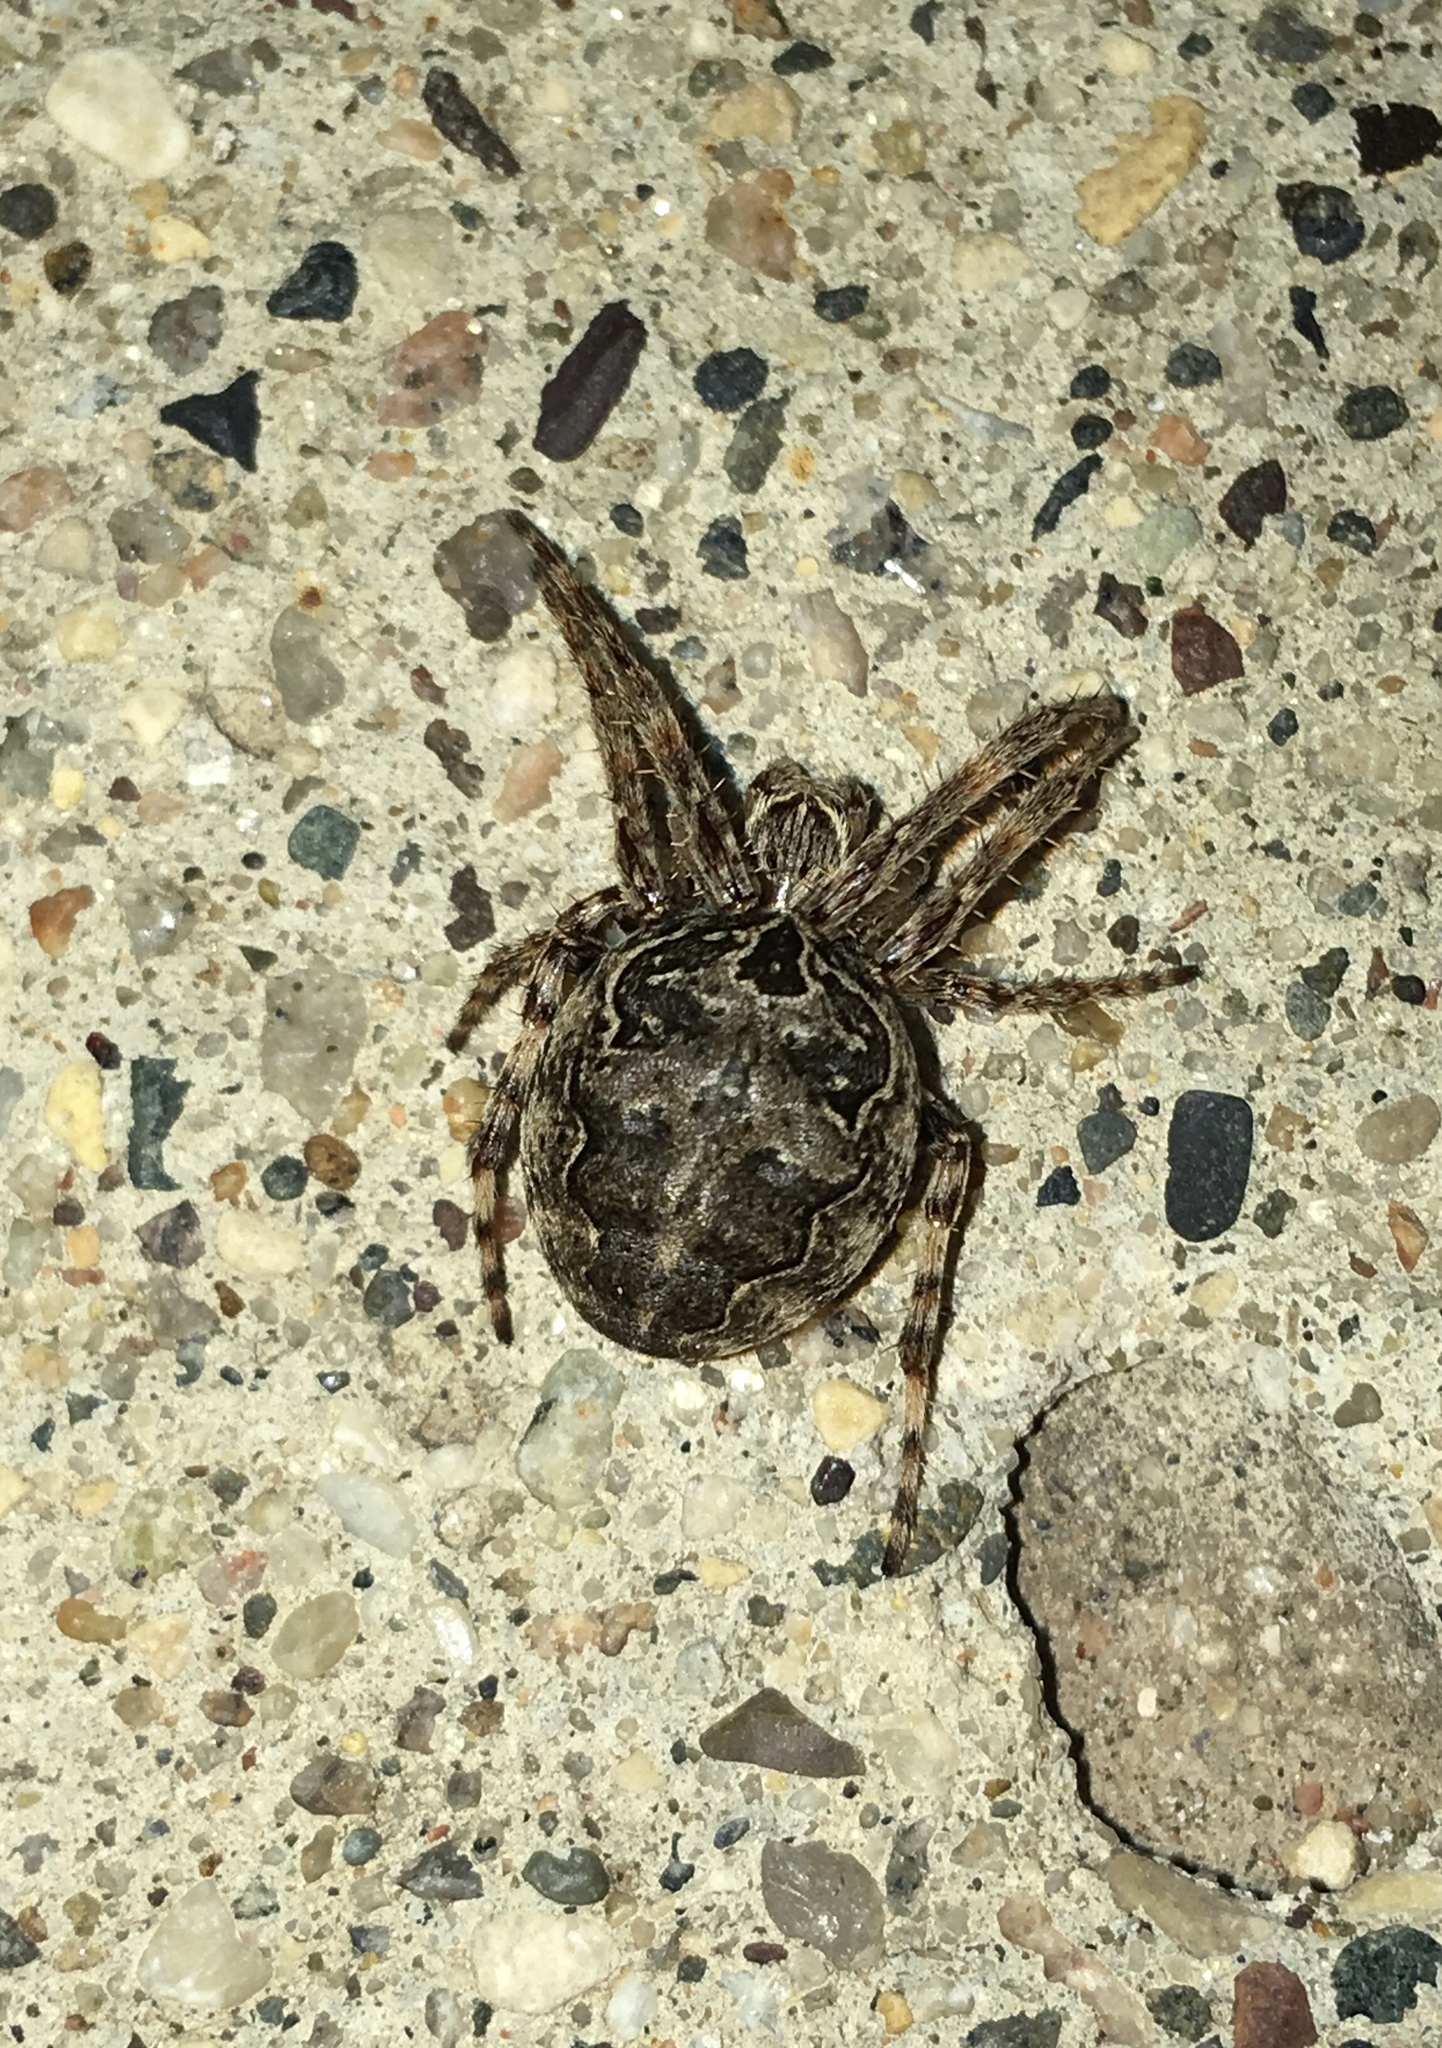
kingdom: Animalia
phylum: Arthropoda
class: Arachnida
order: Araneae
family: Araneidae
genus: Larinioides
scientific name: Larinioides sclopetarius
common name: Bridge orbweaver
